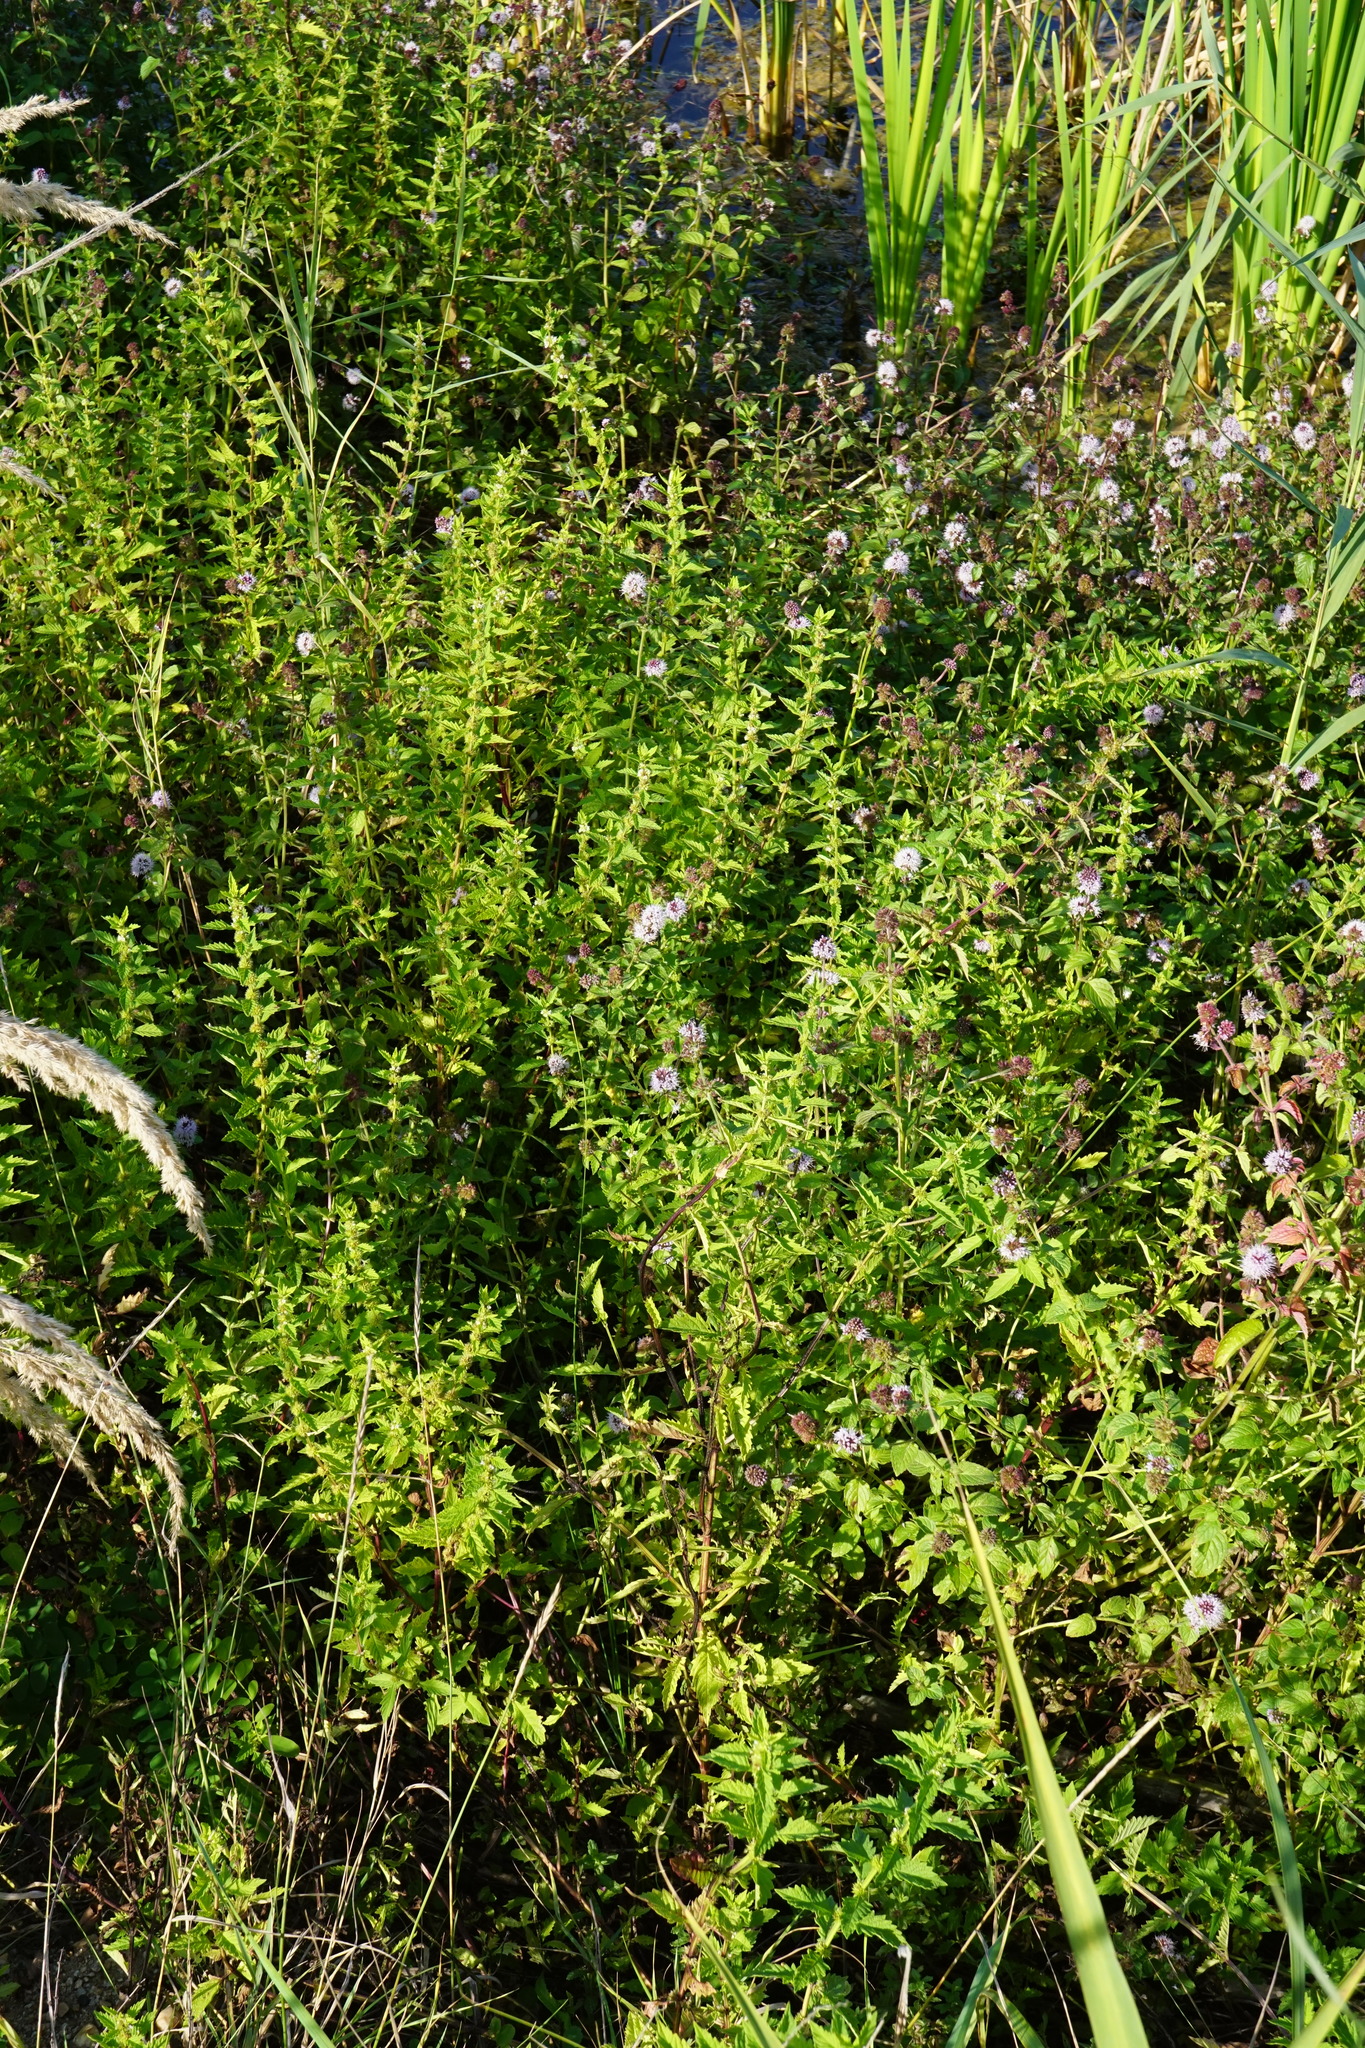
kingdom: Plantae
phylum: Tracheophyta
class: Magnoliopsida
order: Lamiales
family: Lamiaceae
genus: Lycopus
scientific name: Lycopus europaeus
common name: European bugleweed
